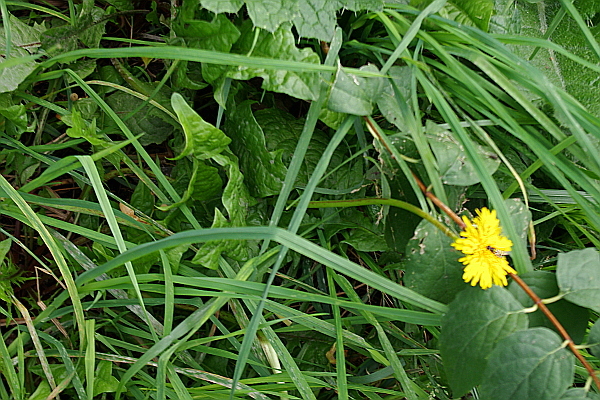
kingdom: Plantae
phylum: Tracheophyta
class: Magnoliopsida
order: Asterales
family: Asteraceae
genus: Taraxacum
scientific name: Taraxacum officinale
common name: Common dandelion
